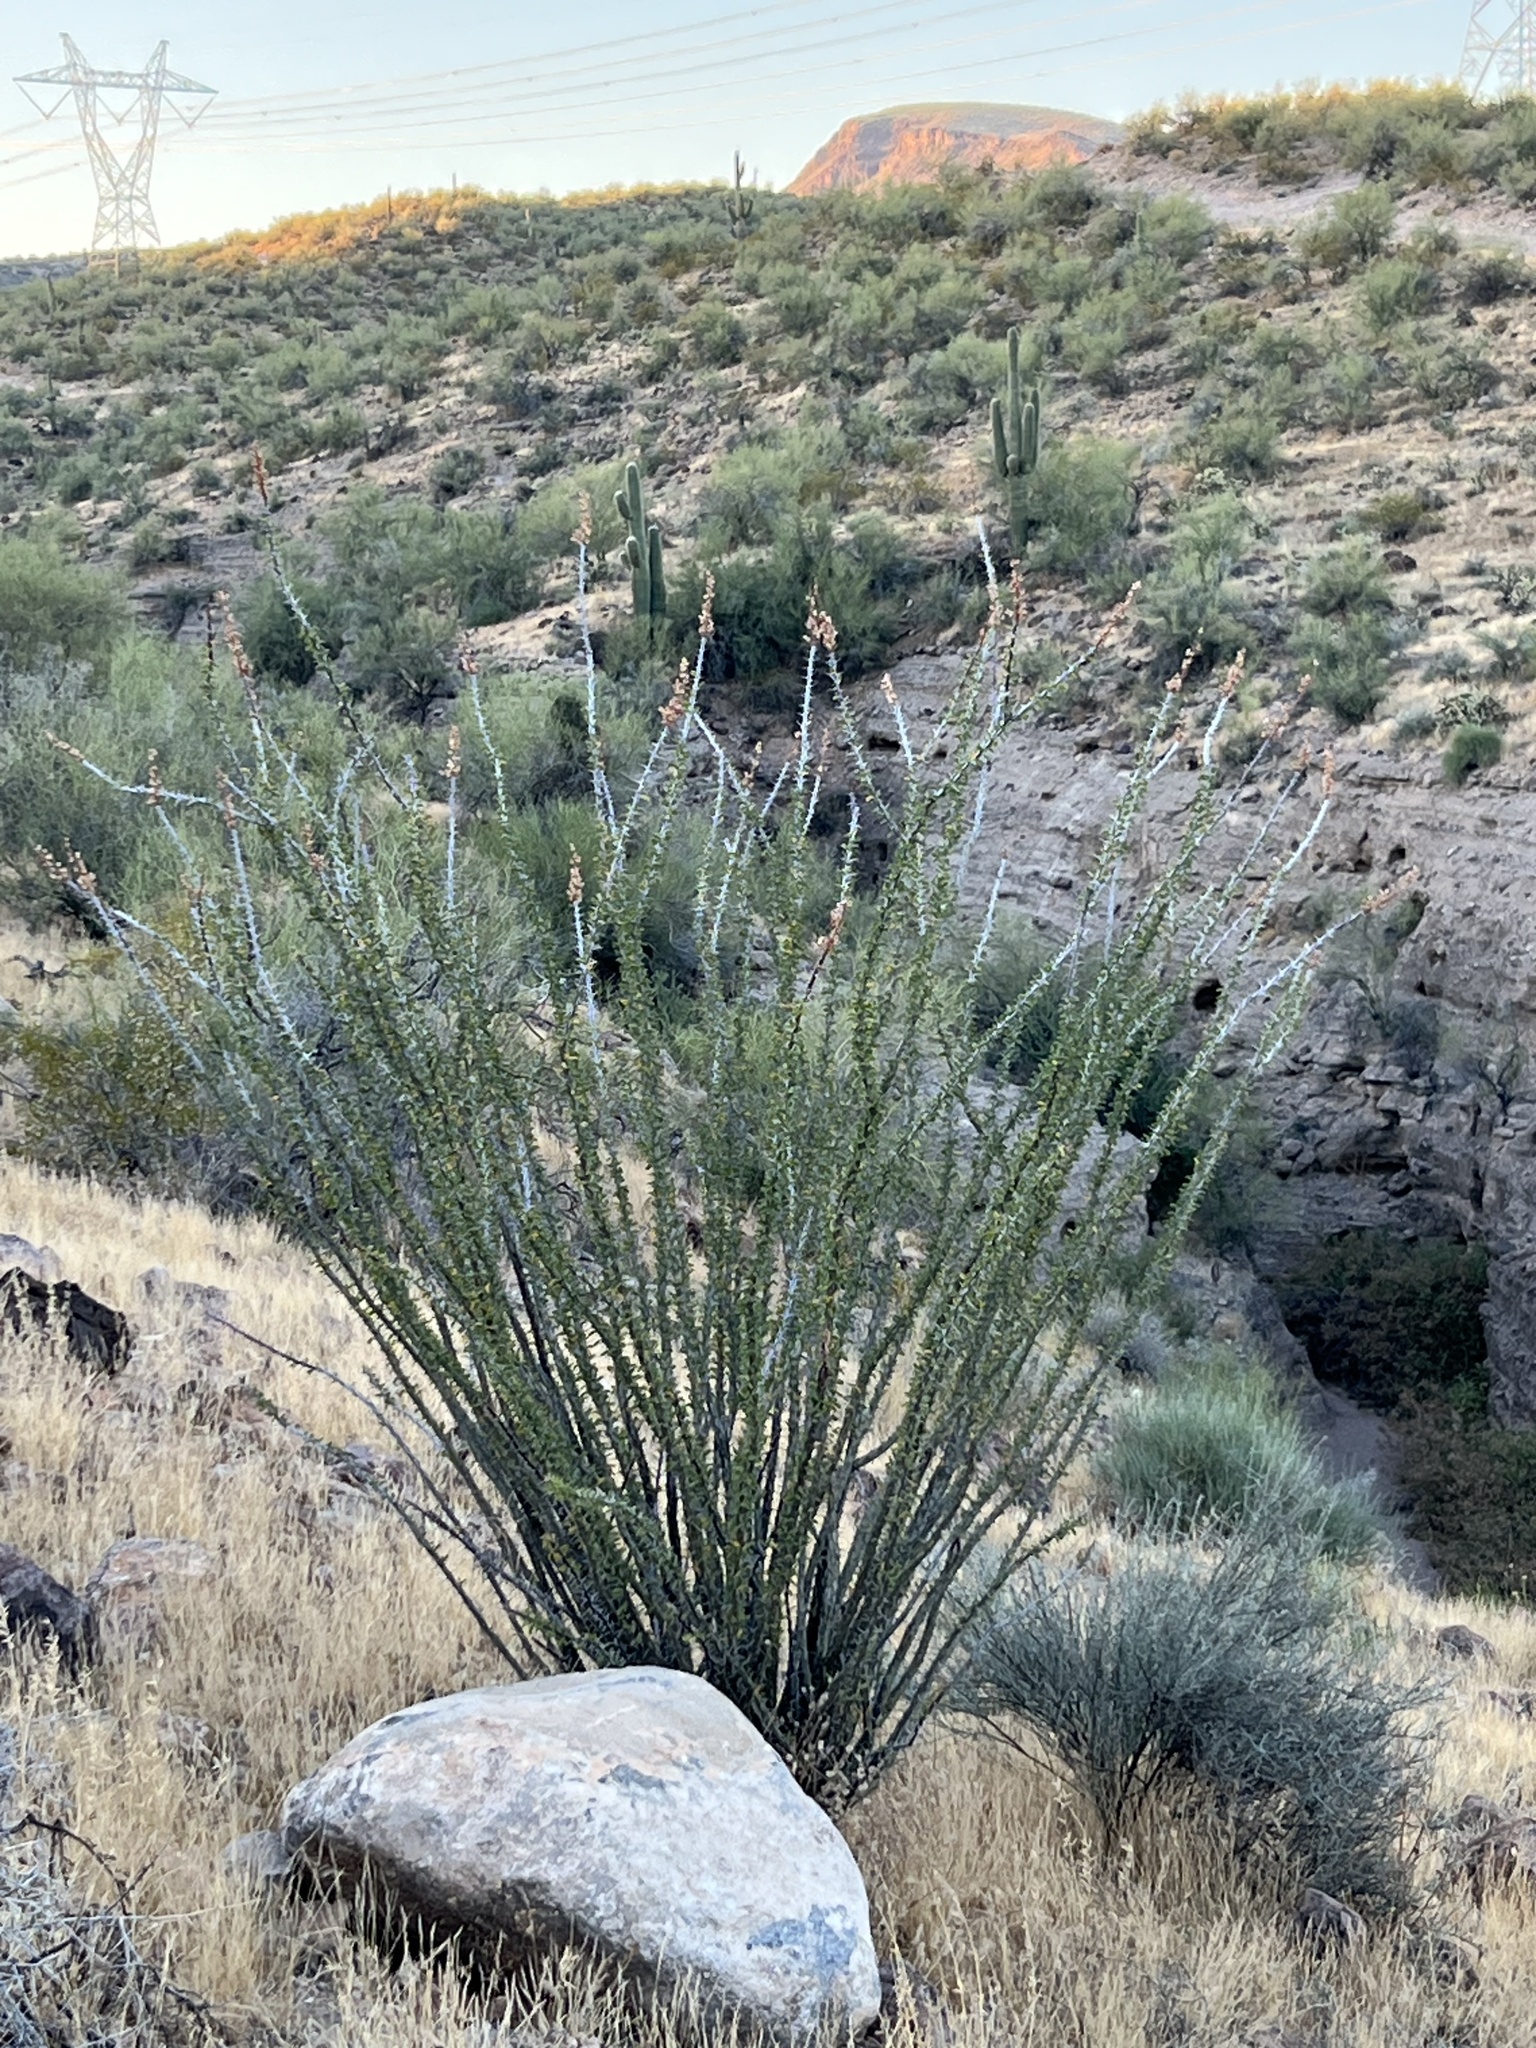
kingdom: Plantae
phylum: Tracheophyta
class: Magnoliopsida
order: Ericales
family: Fouquieriaceae
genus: Fouquieria
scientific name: Fouquieria splendens
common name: Vine-cactus
